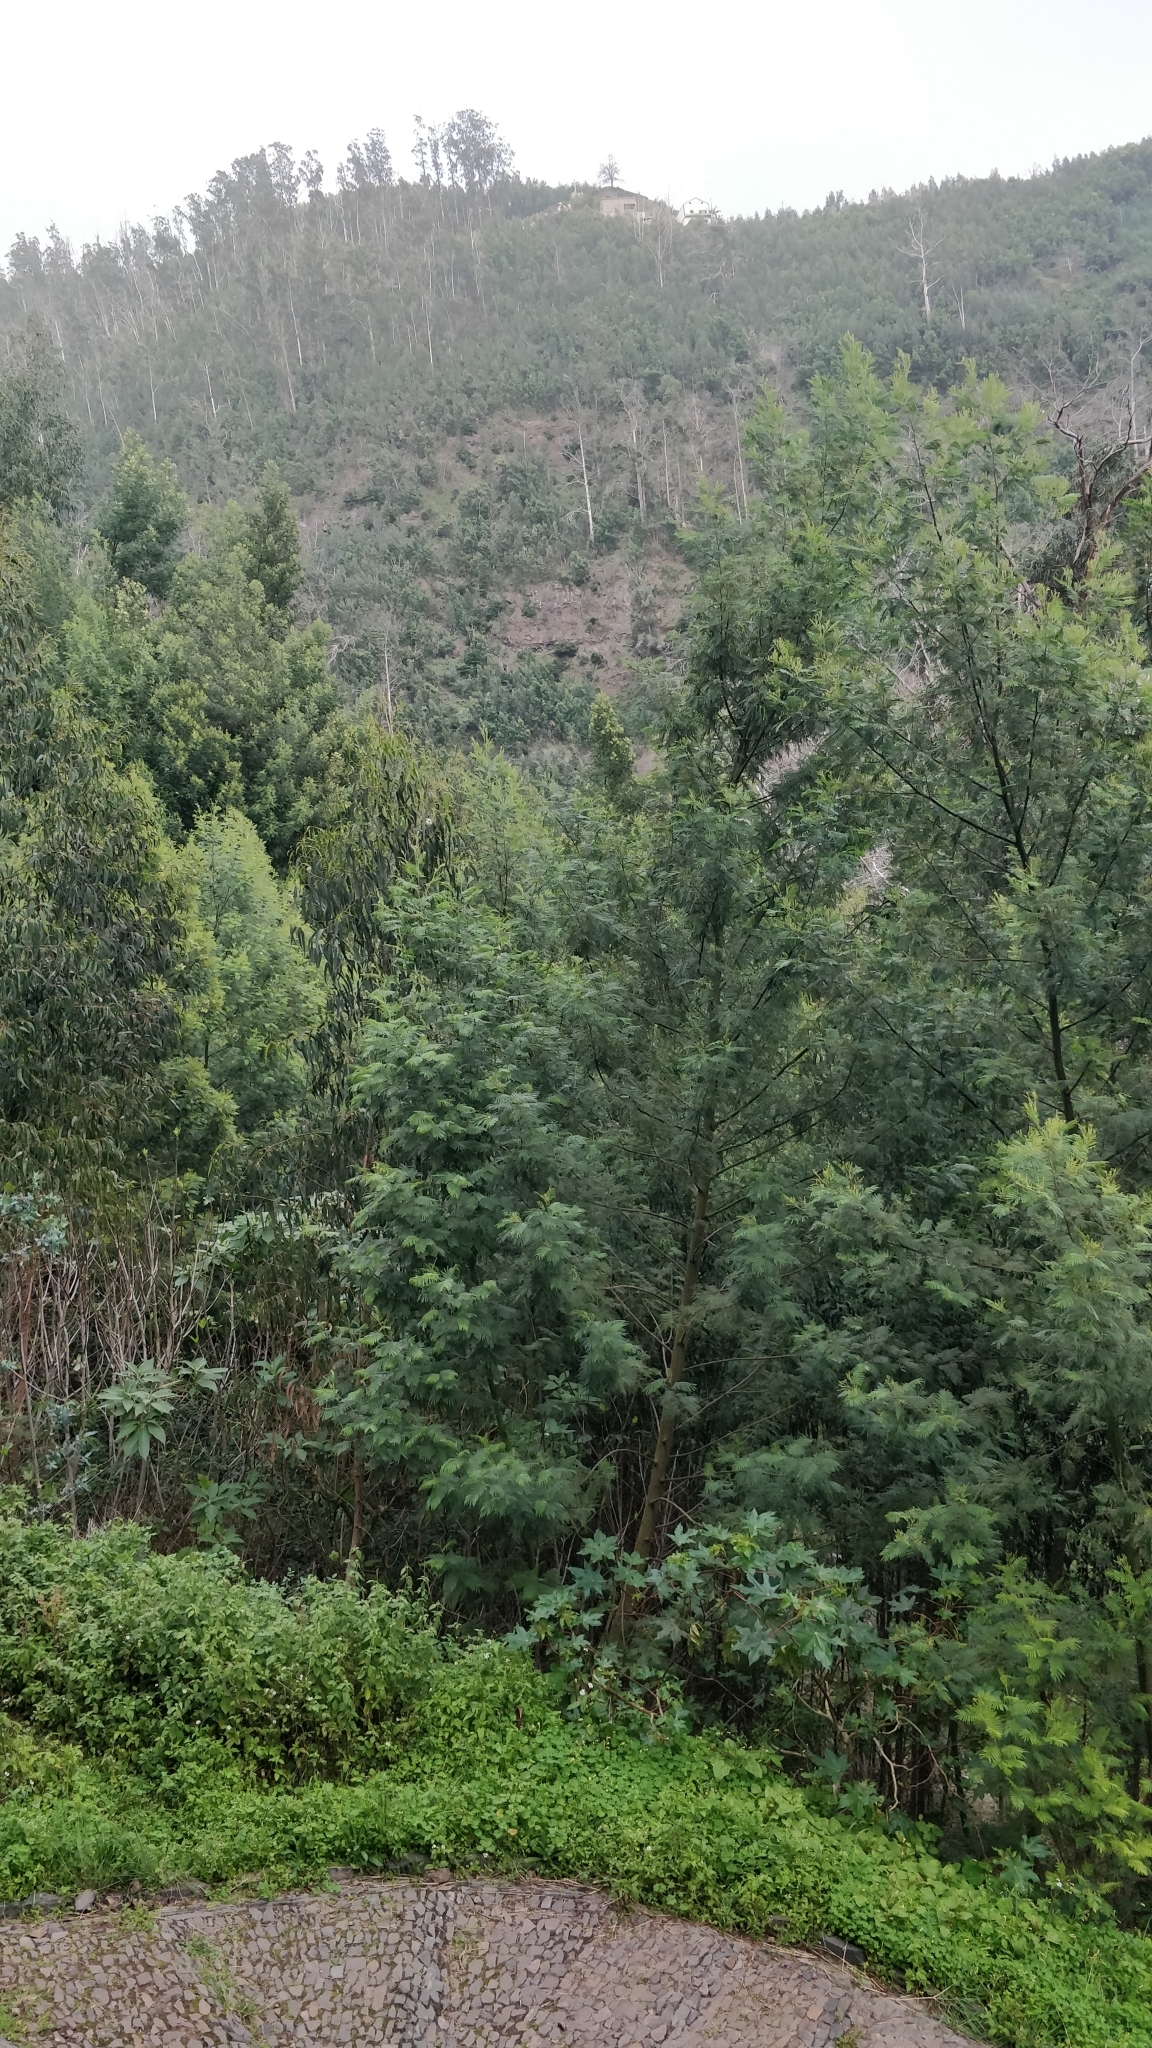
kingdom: Plantae
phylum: Tracheophyta
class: Magnoliopsida
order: Fabales
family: Fabaceae
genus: Acacia
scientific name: Acacia mearnsii
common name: Black wattle
